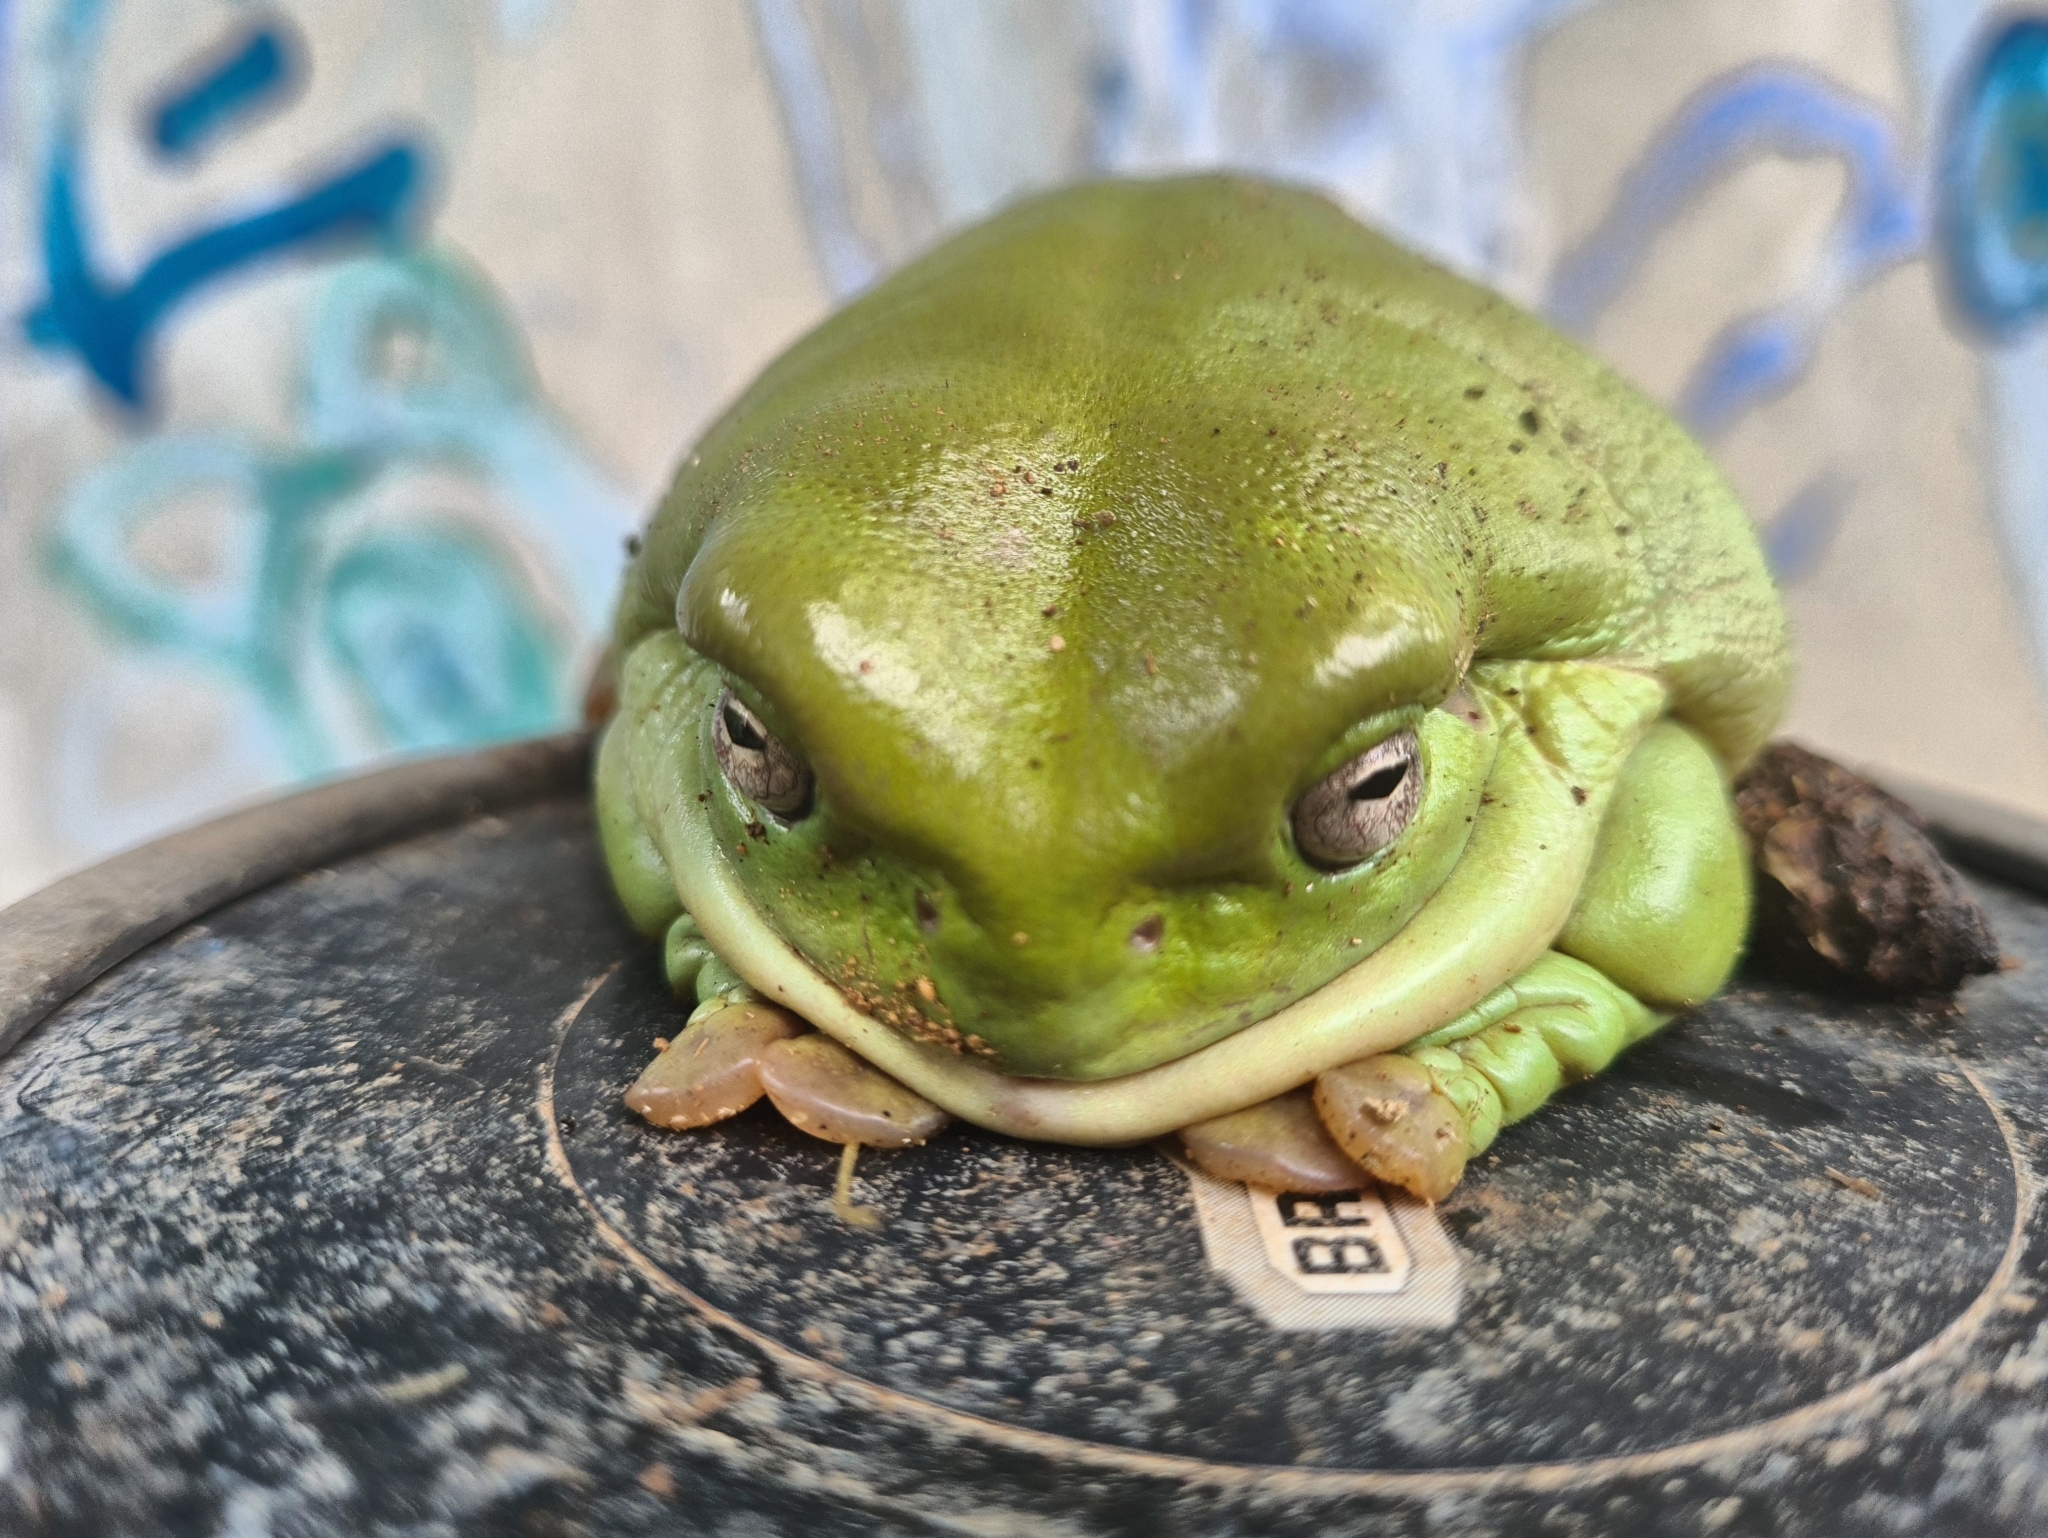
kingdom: Animalia
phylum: Chordata
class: Amphibia
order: Anura
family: Pelodryadidae
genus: Ranoidea
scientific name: Ranoidea caerulea
